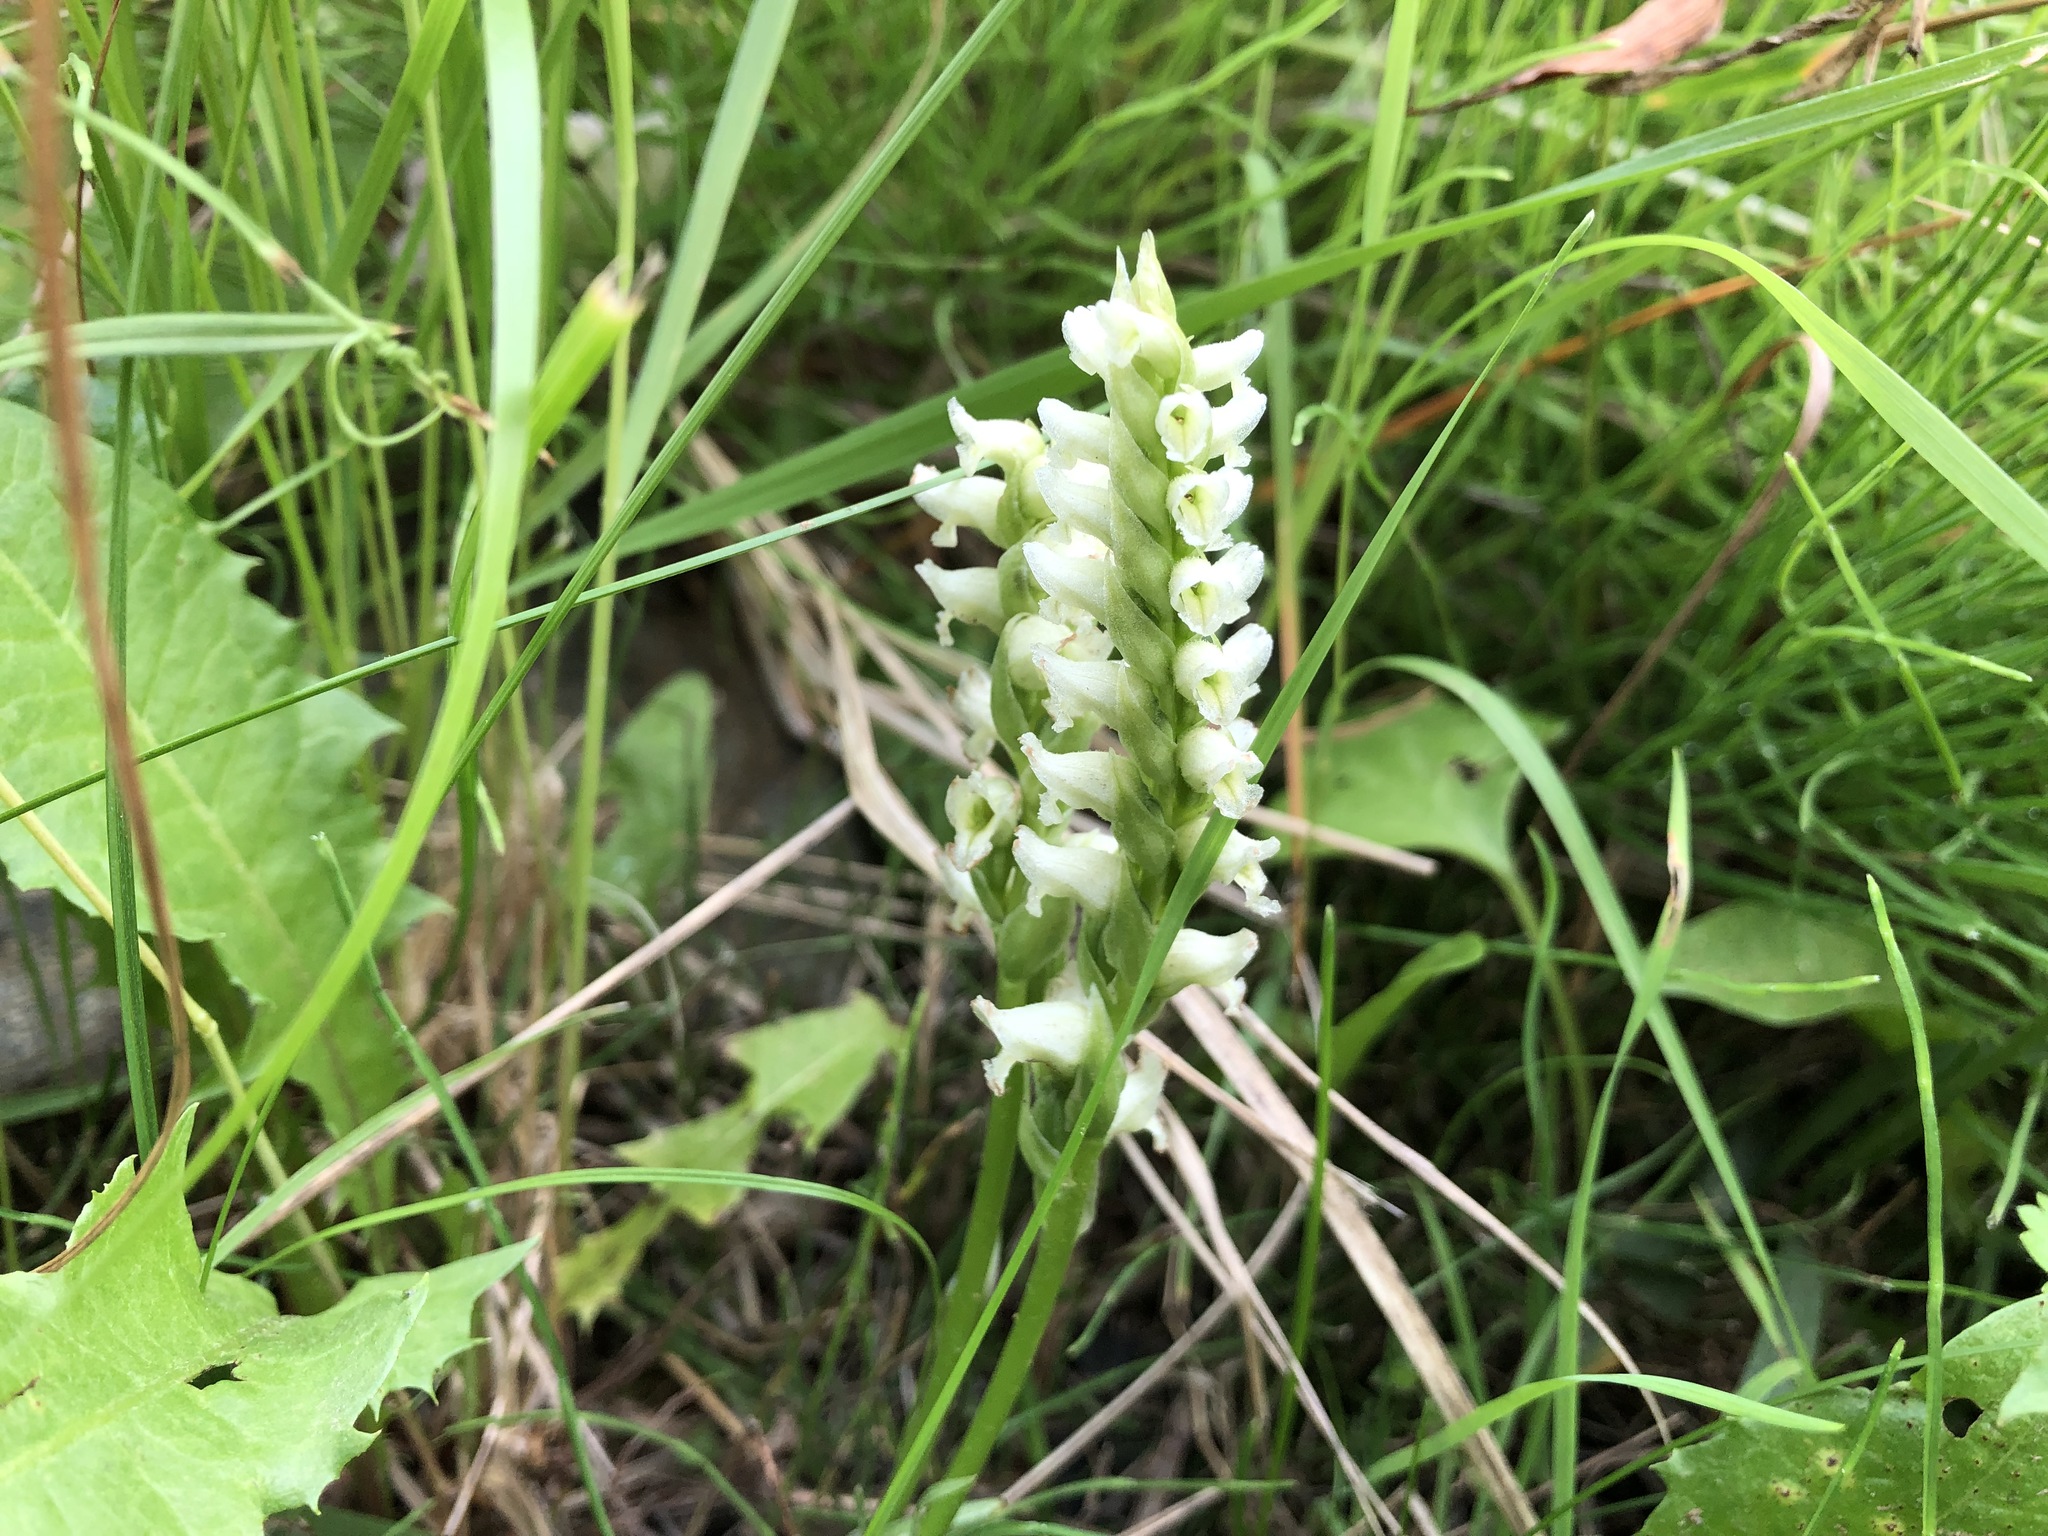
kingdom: Plantae
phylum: Tracheophyta
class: Liliopsida
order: Asparagales
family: Orchidaceae
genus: Spiranthes
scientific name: Spiranthes romanzoffiana
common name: Irish lady's-tresses
